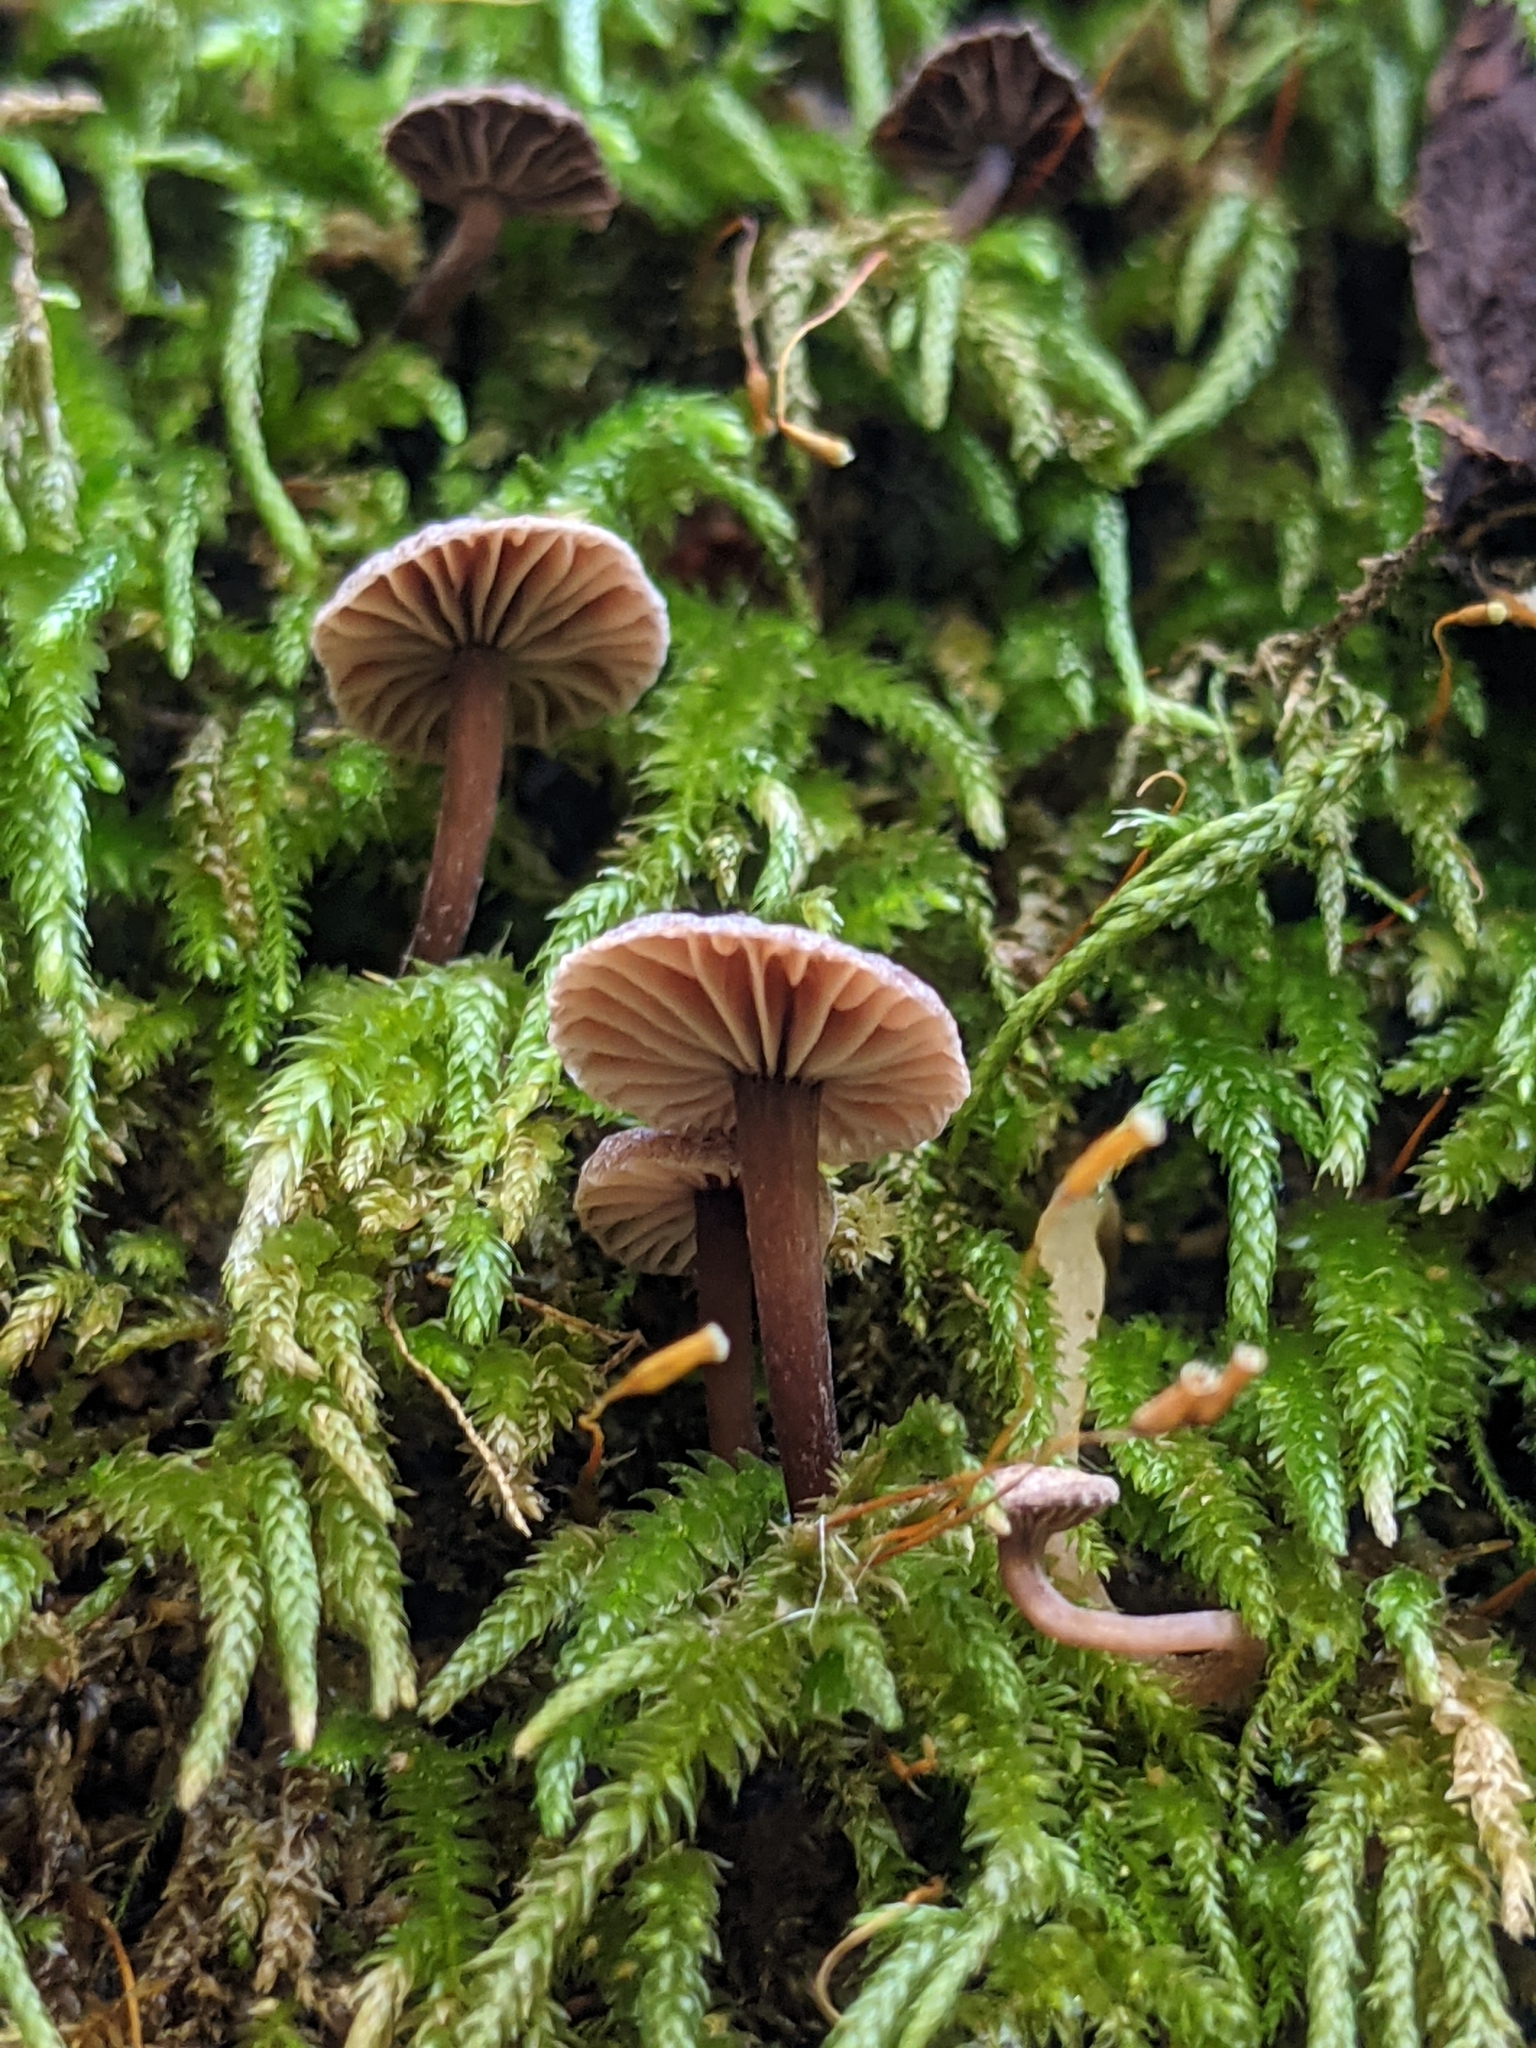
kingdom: Fungi
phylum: Basidiomycota
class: Agaricomycetes
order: Agaricales
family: Omphalotaceae
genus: Micromphale
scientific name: Micromphale arbuticola
